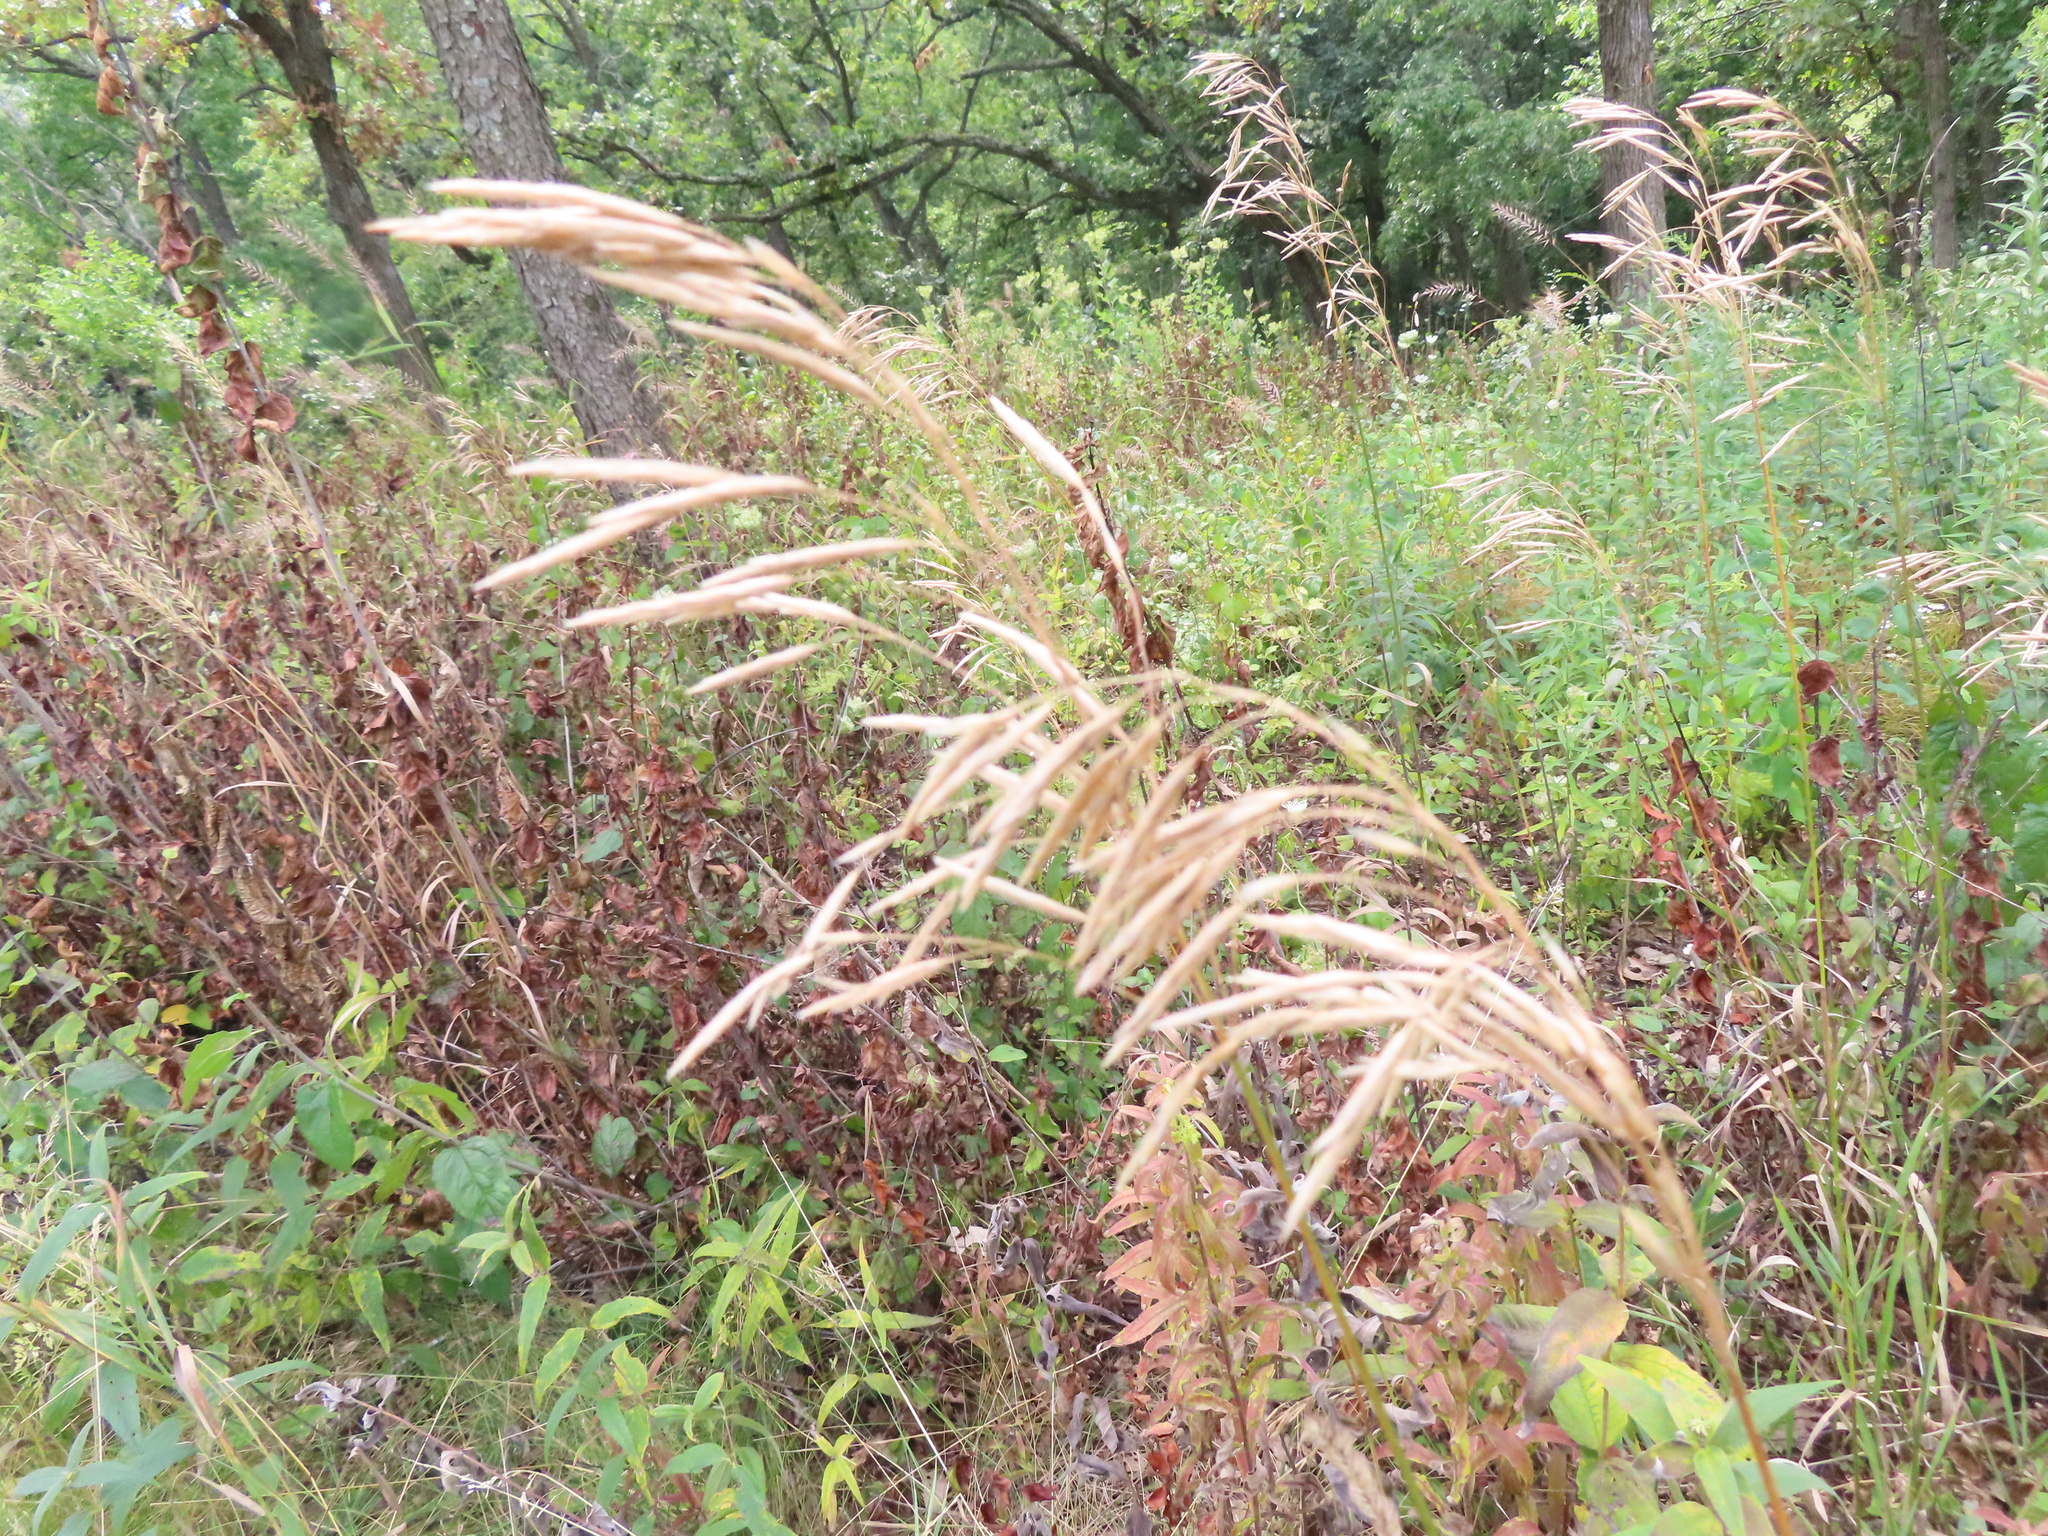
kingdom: Plantae
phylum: Tracheophyta
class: Liliopsida
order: Poales
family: Poaceae
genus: Bromus
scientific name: Bromus inermis
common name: Smooth brome
